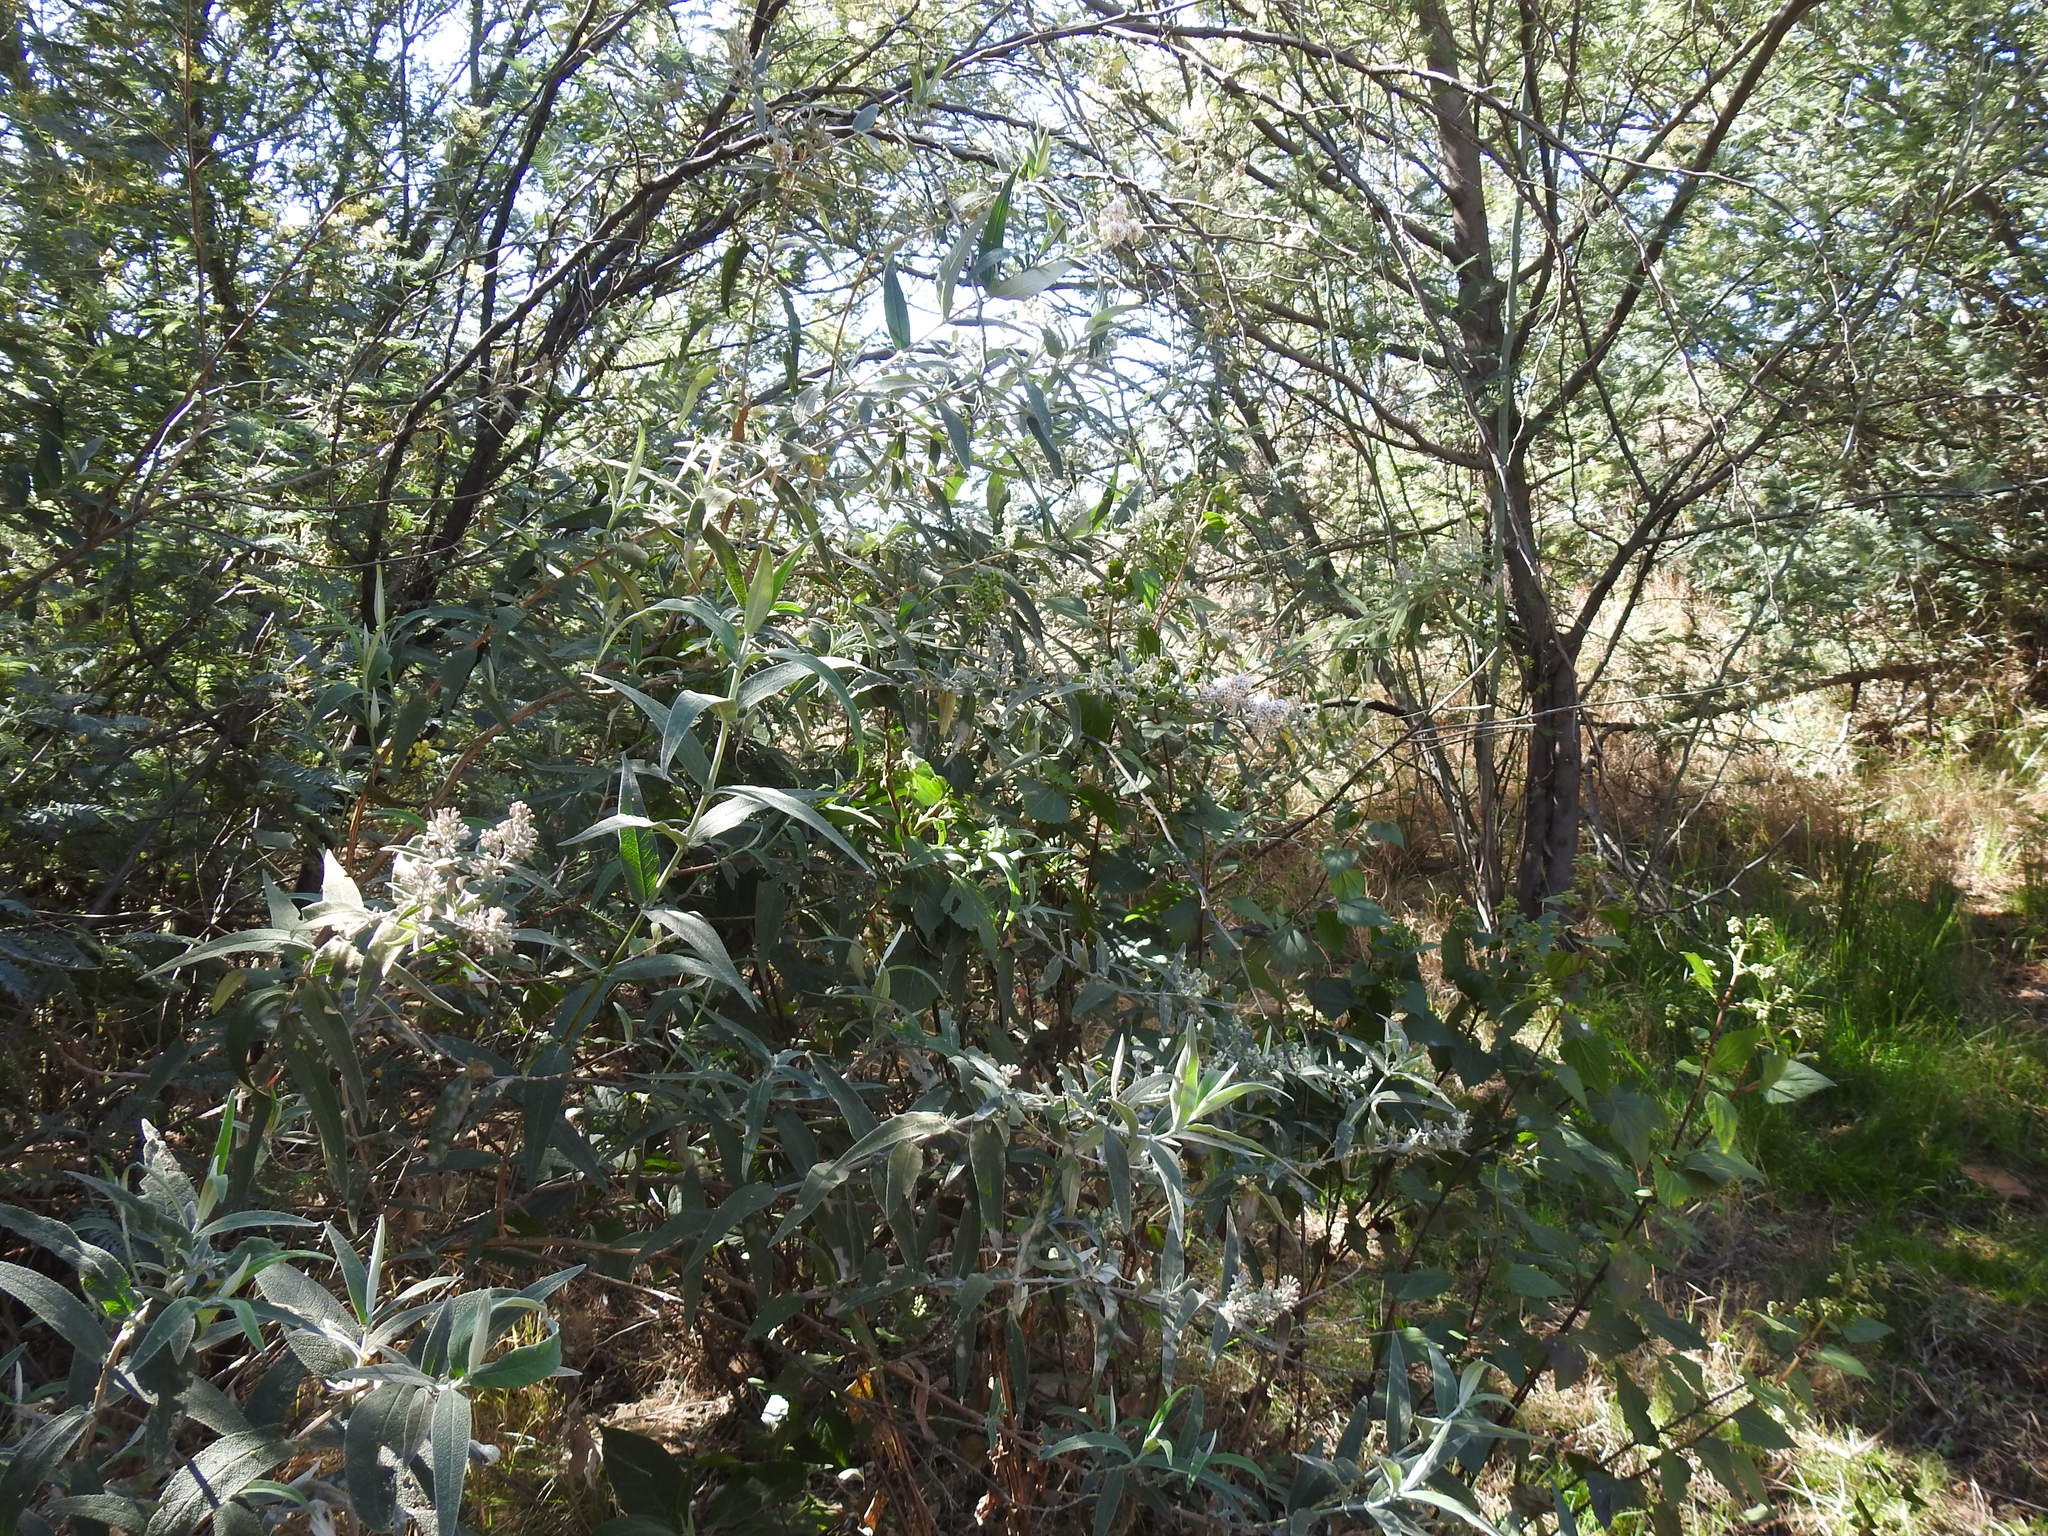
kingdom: Plantae
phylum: Tracheophyta
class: Magnoliopsida
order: Lamiales
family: Scrophulariaceae
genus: Buddleja
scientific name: Buddleja salviifolia
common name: Sagewood
